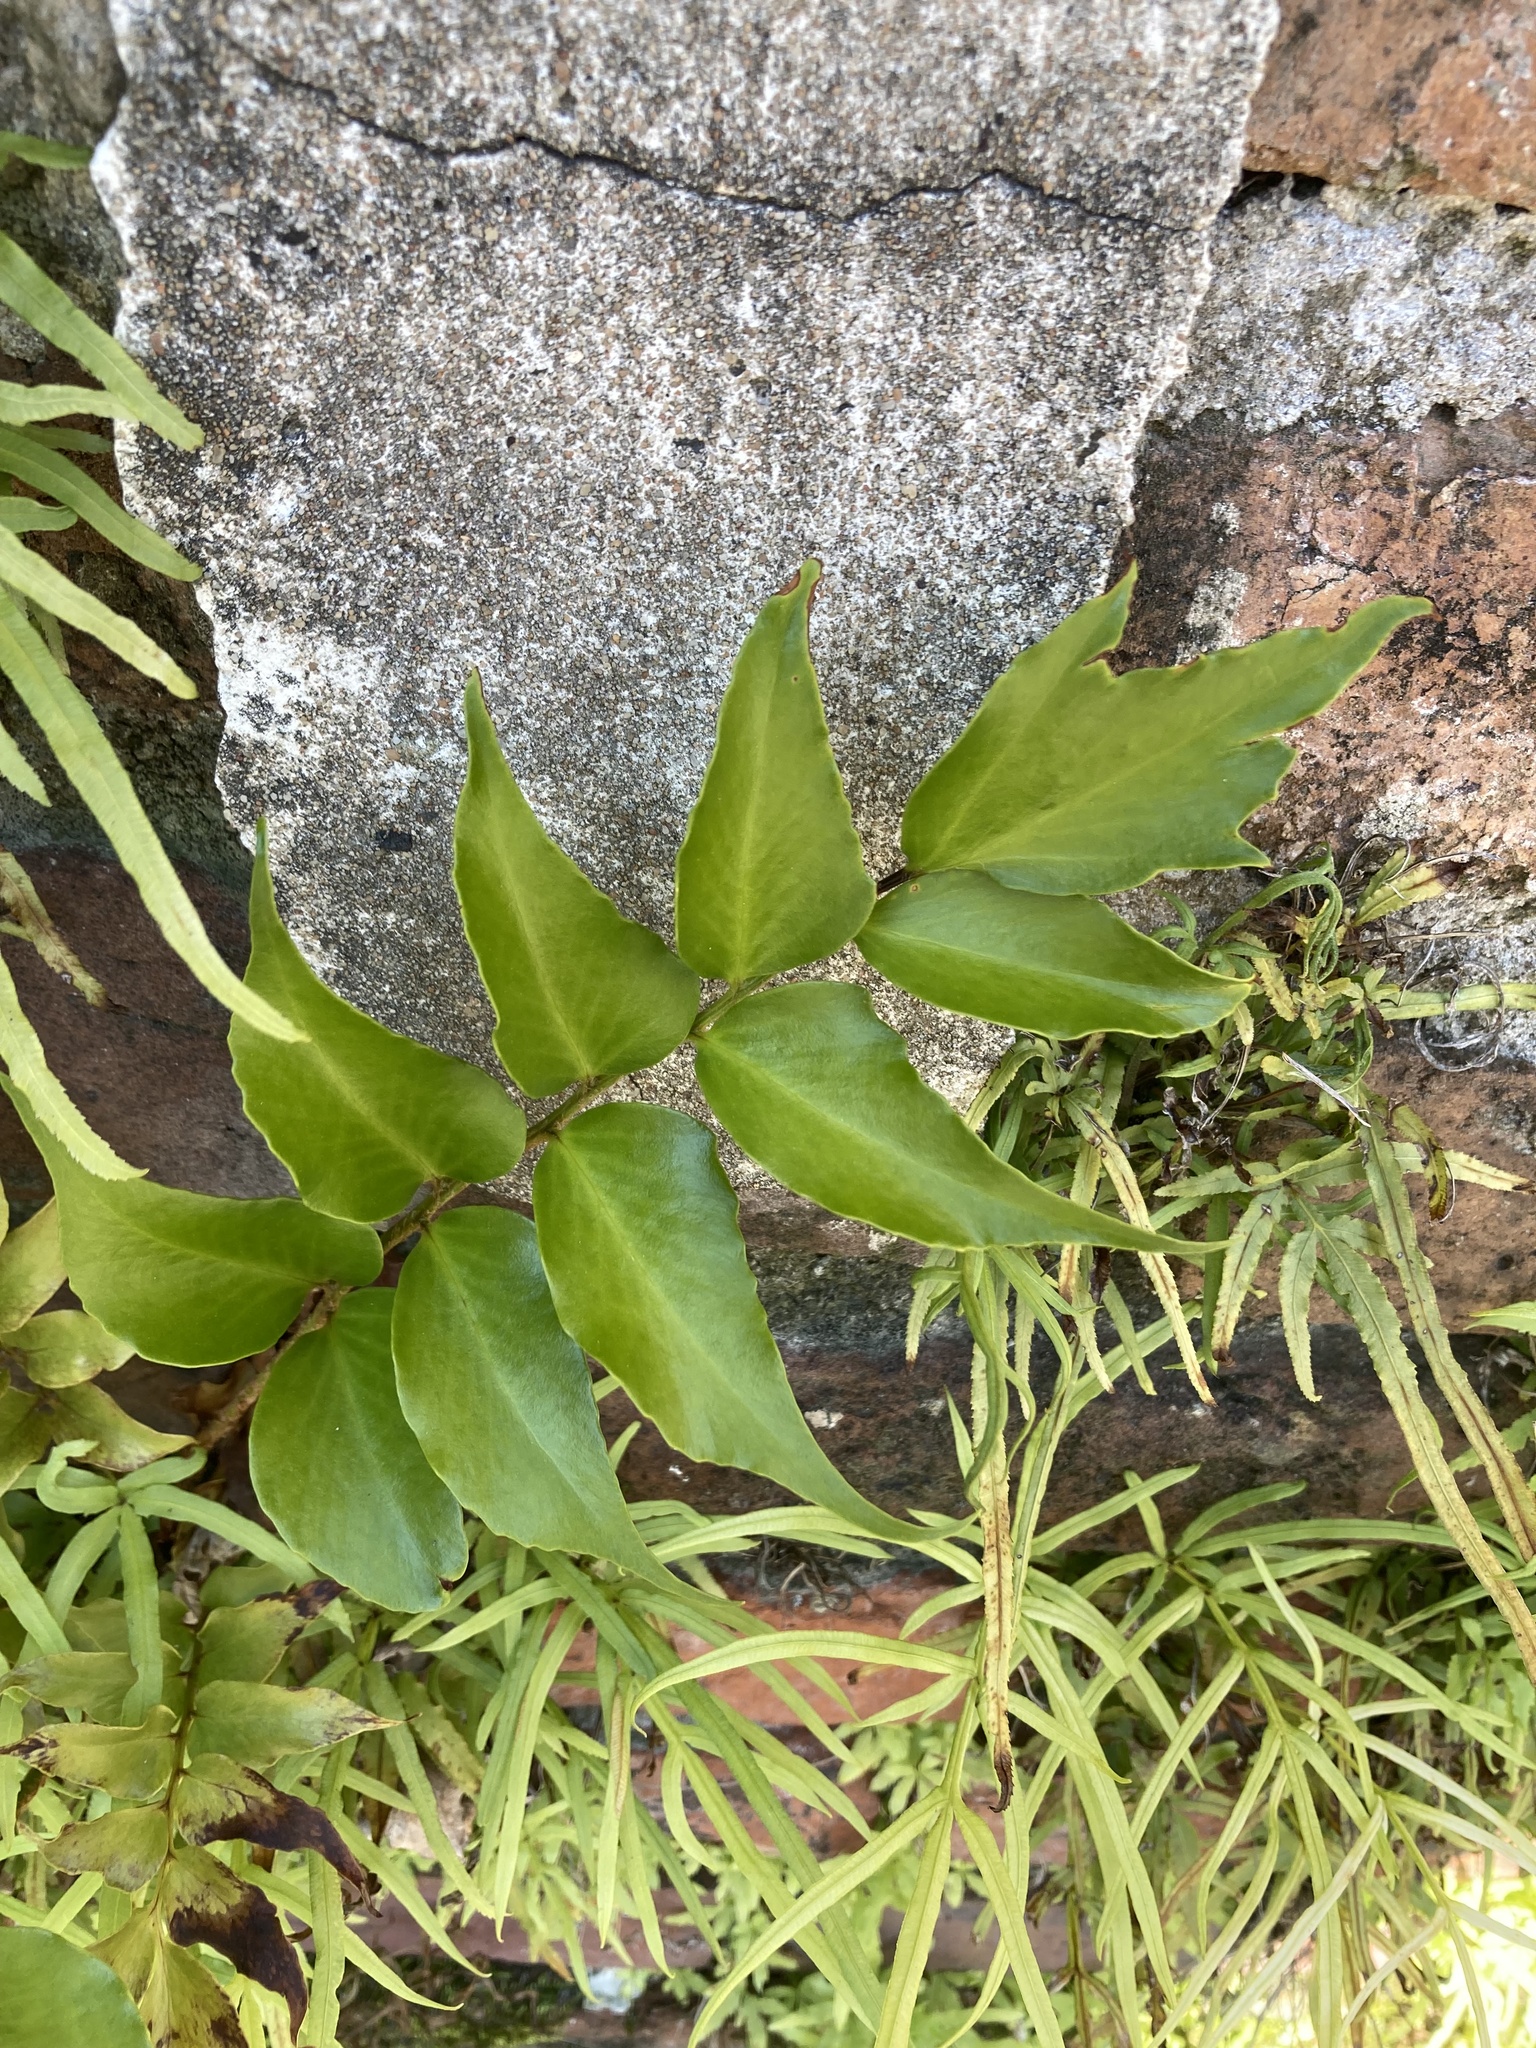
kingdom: Plantae
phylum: Tracheophyta
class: Polypodiopsida
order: Polypodiales
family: Dryopteridaceae
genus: Cyrtomium
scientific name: Cyrtomium falcatum
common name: House holly-fern
